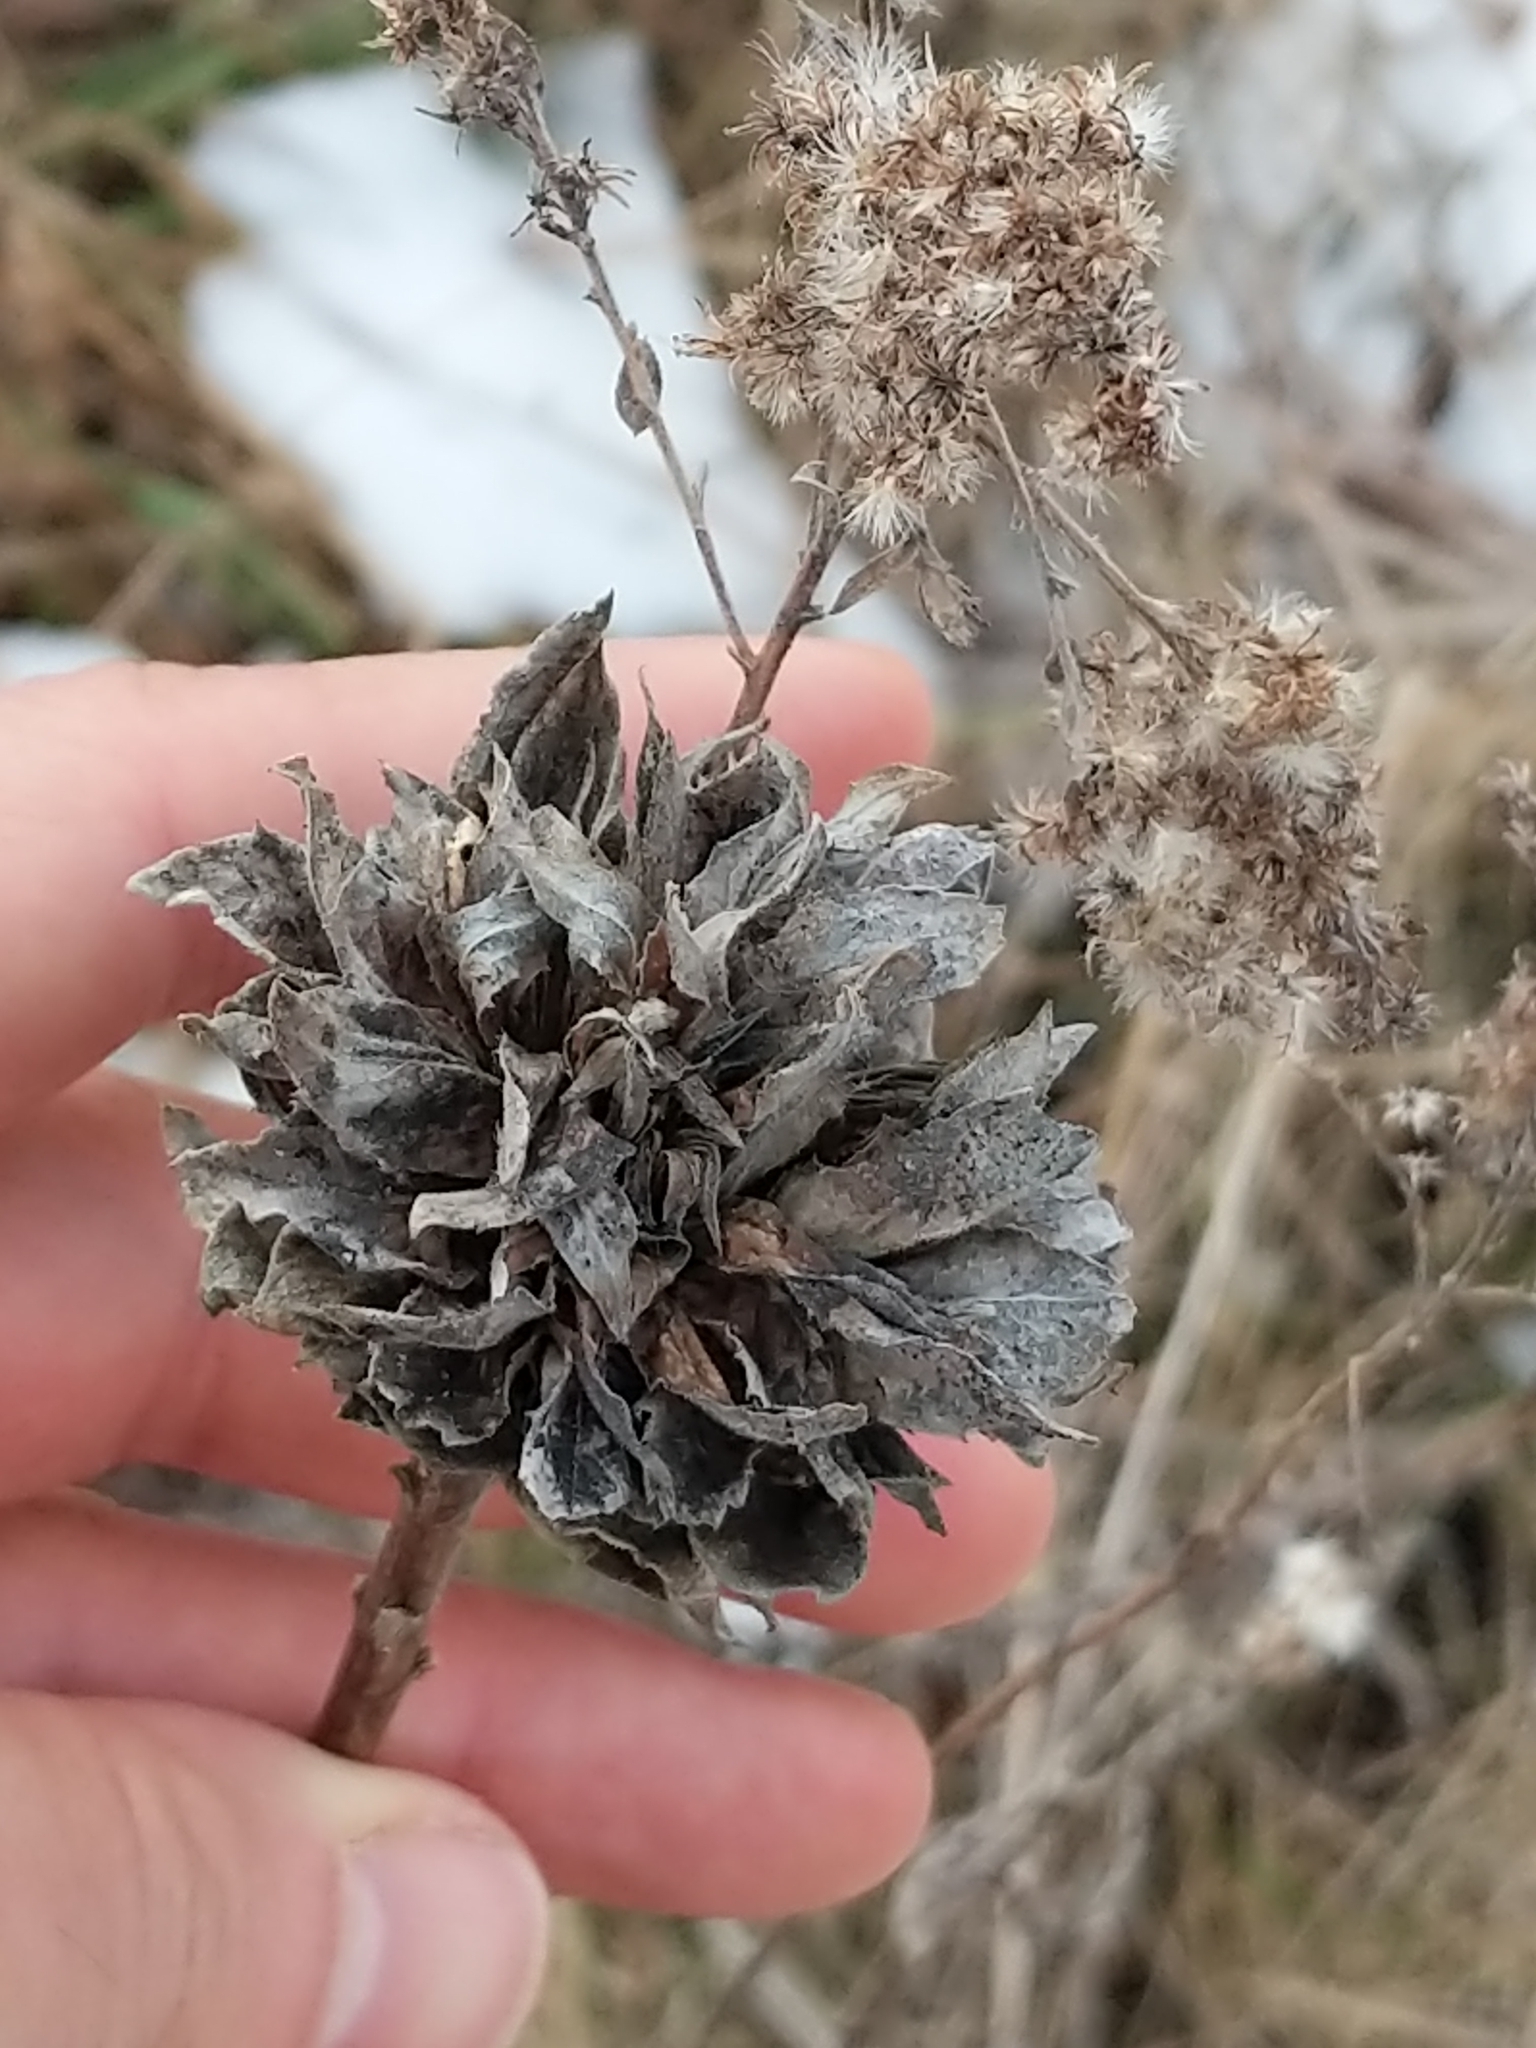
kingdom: Animalia
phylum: Arthropoda
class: Insecta
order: Diptera
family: Cecidomyiidae
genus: Rhopalomyia
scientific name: Rhopalomyia solidaginis
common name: Goldenrod bunch gall midge
